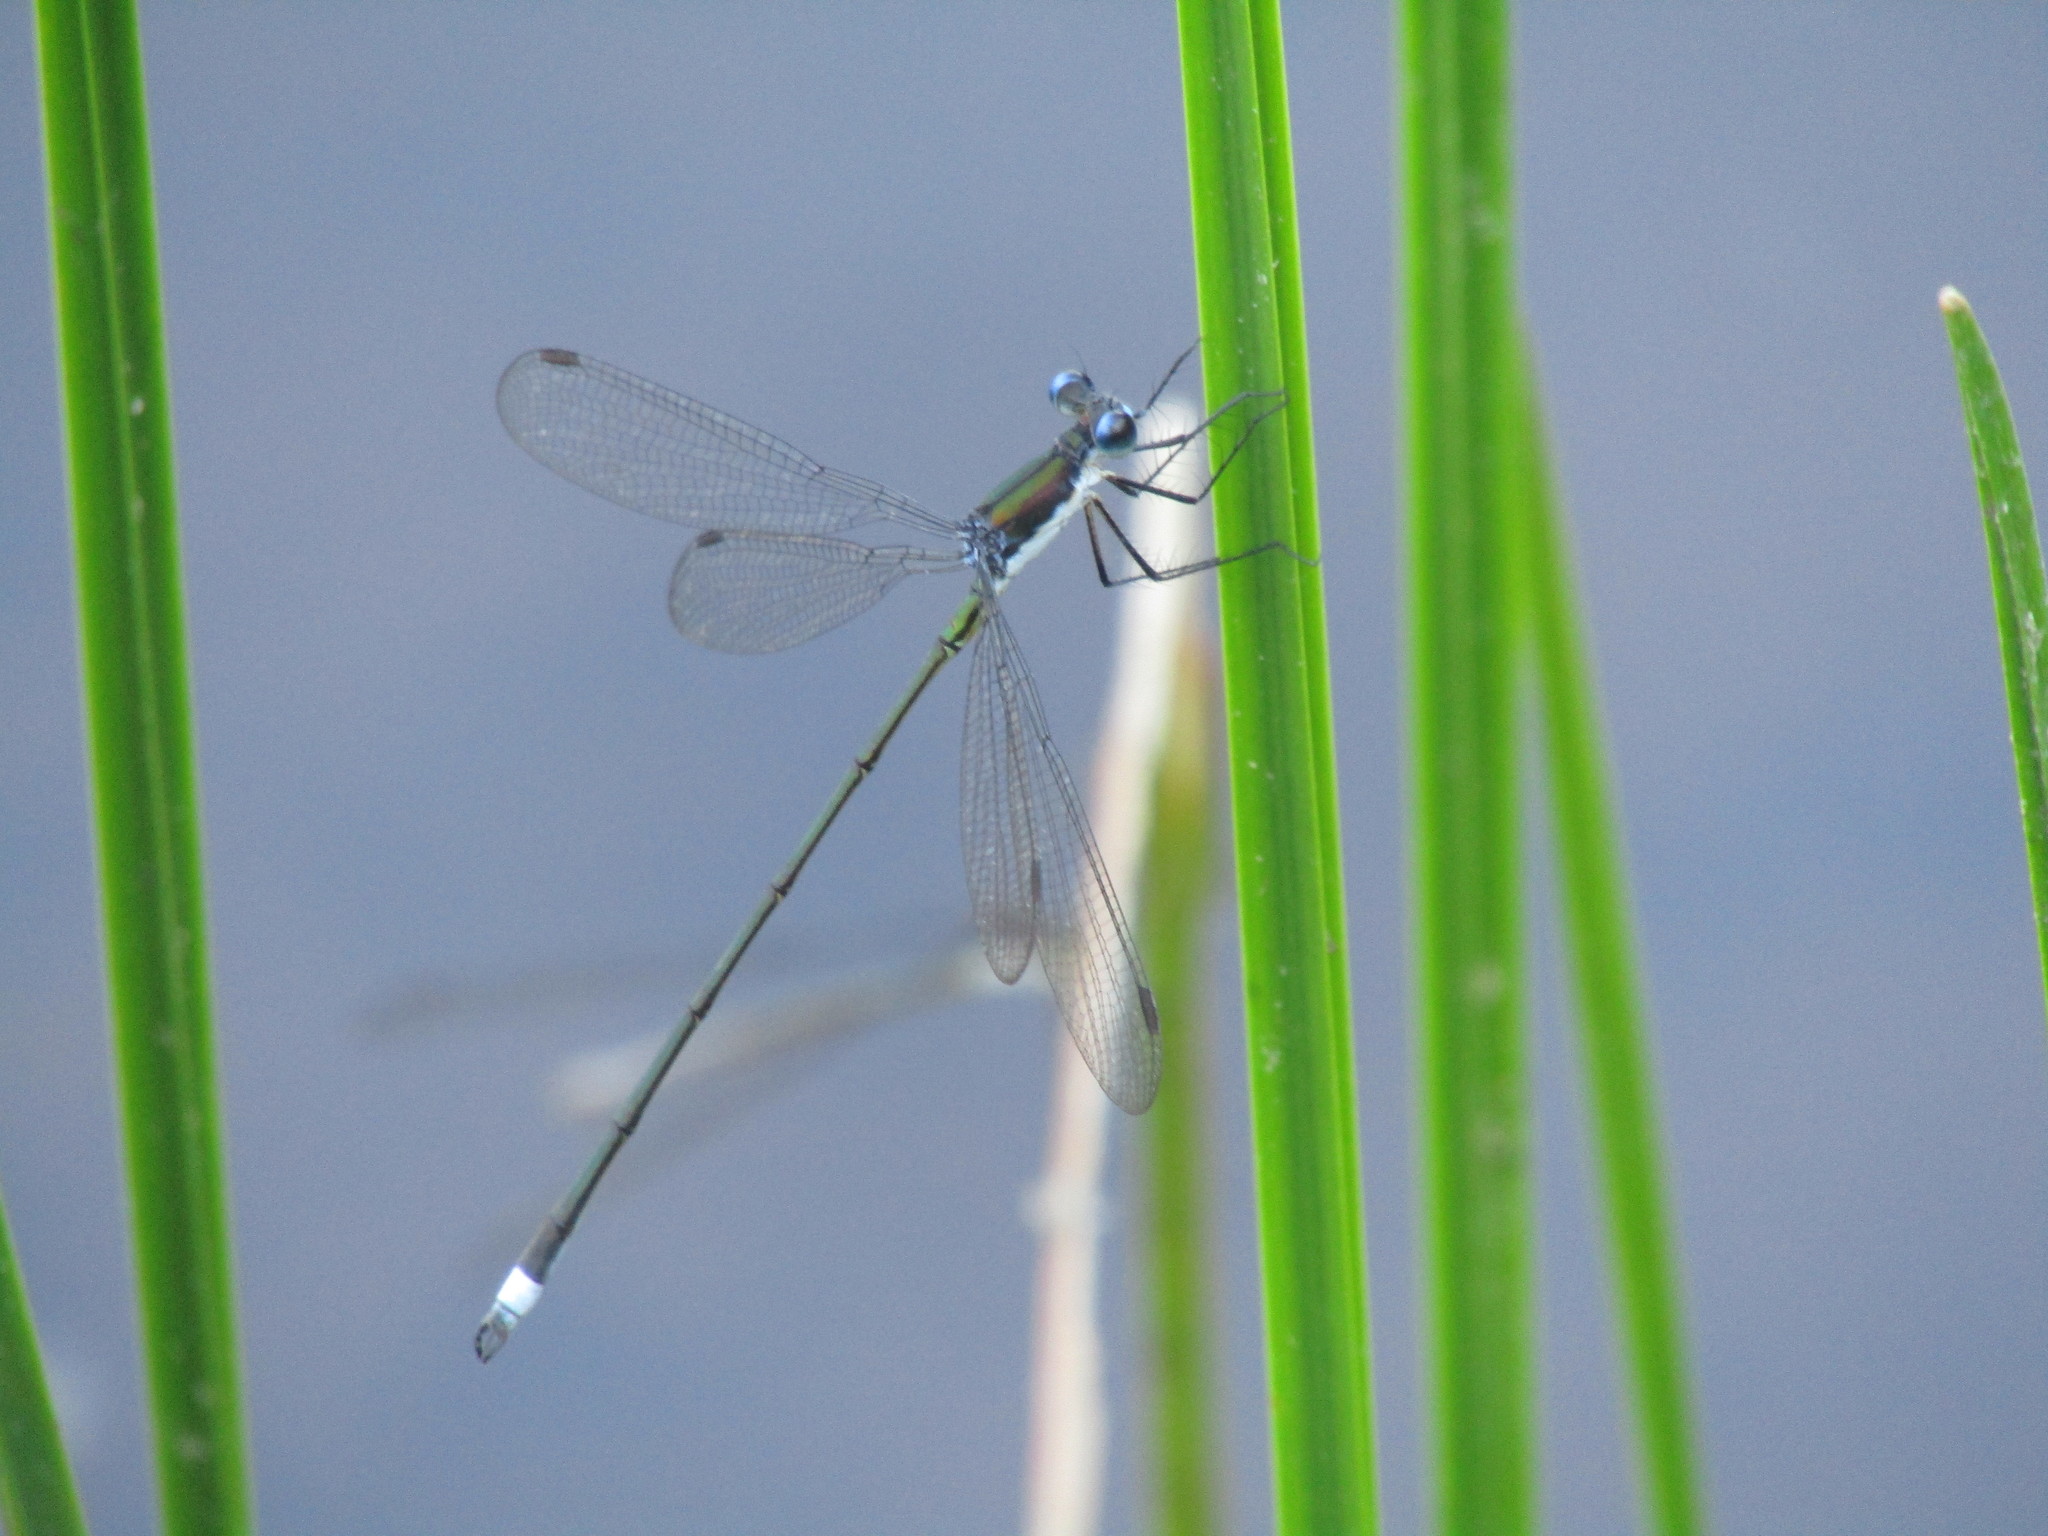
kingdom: Animalia
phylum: Arthropoda
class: Insecta
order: Odonata
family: Lestidae
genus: Lestes
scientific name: Lestes vigilax
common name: Swamp spreadwing
